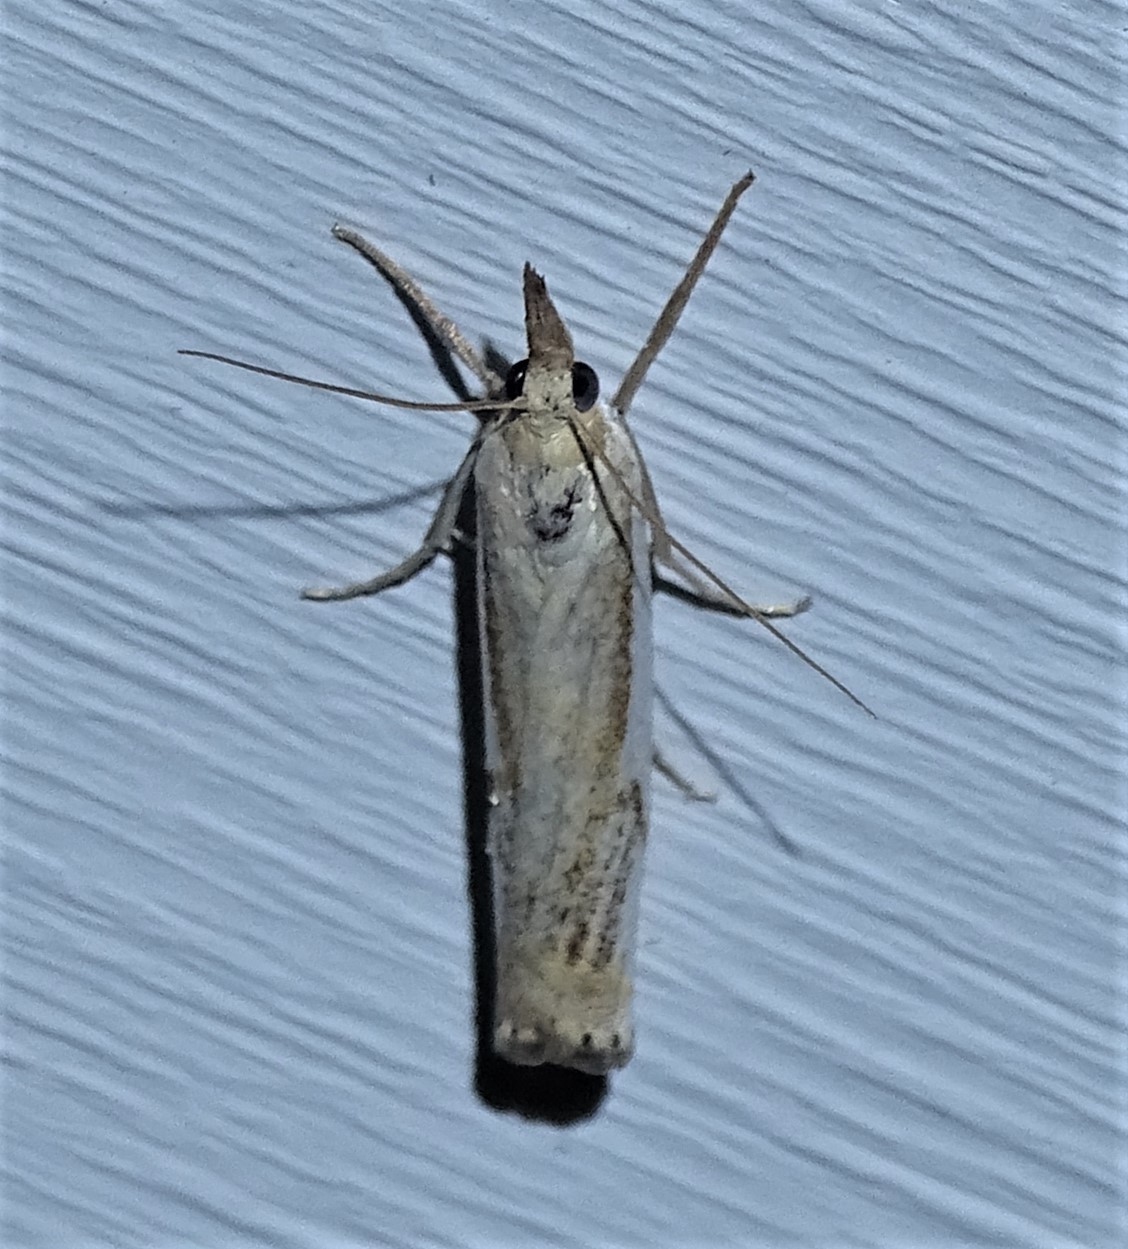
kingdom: Animalia
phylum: Arthropoda
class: Insecta
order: Lepidoptera
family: Crambidae
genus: Crambus
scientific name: Crambus agitatellus
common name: Double-banded grass-veneer
